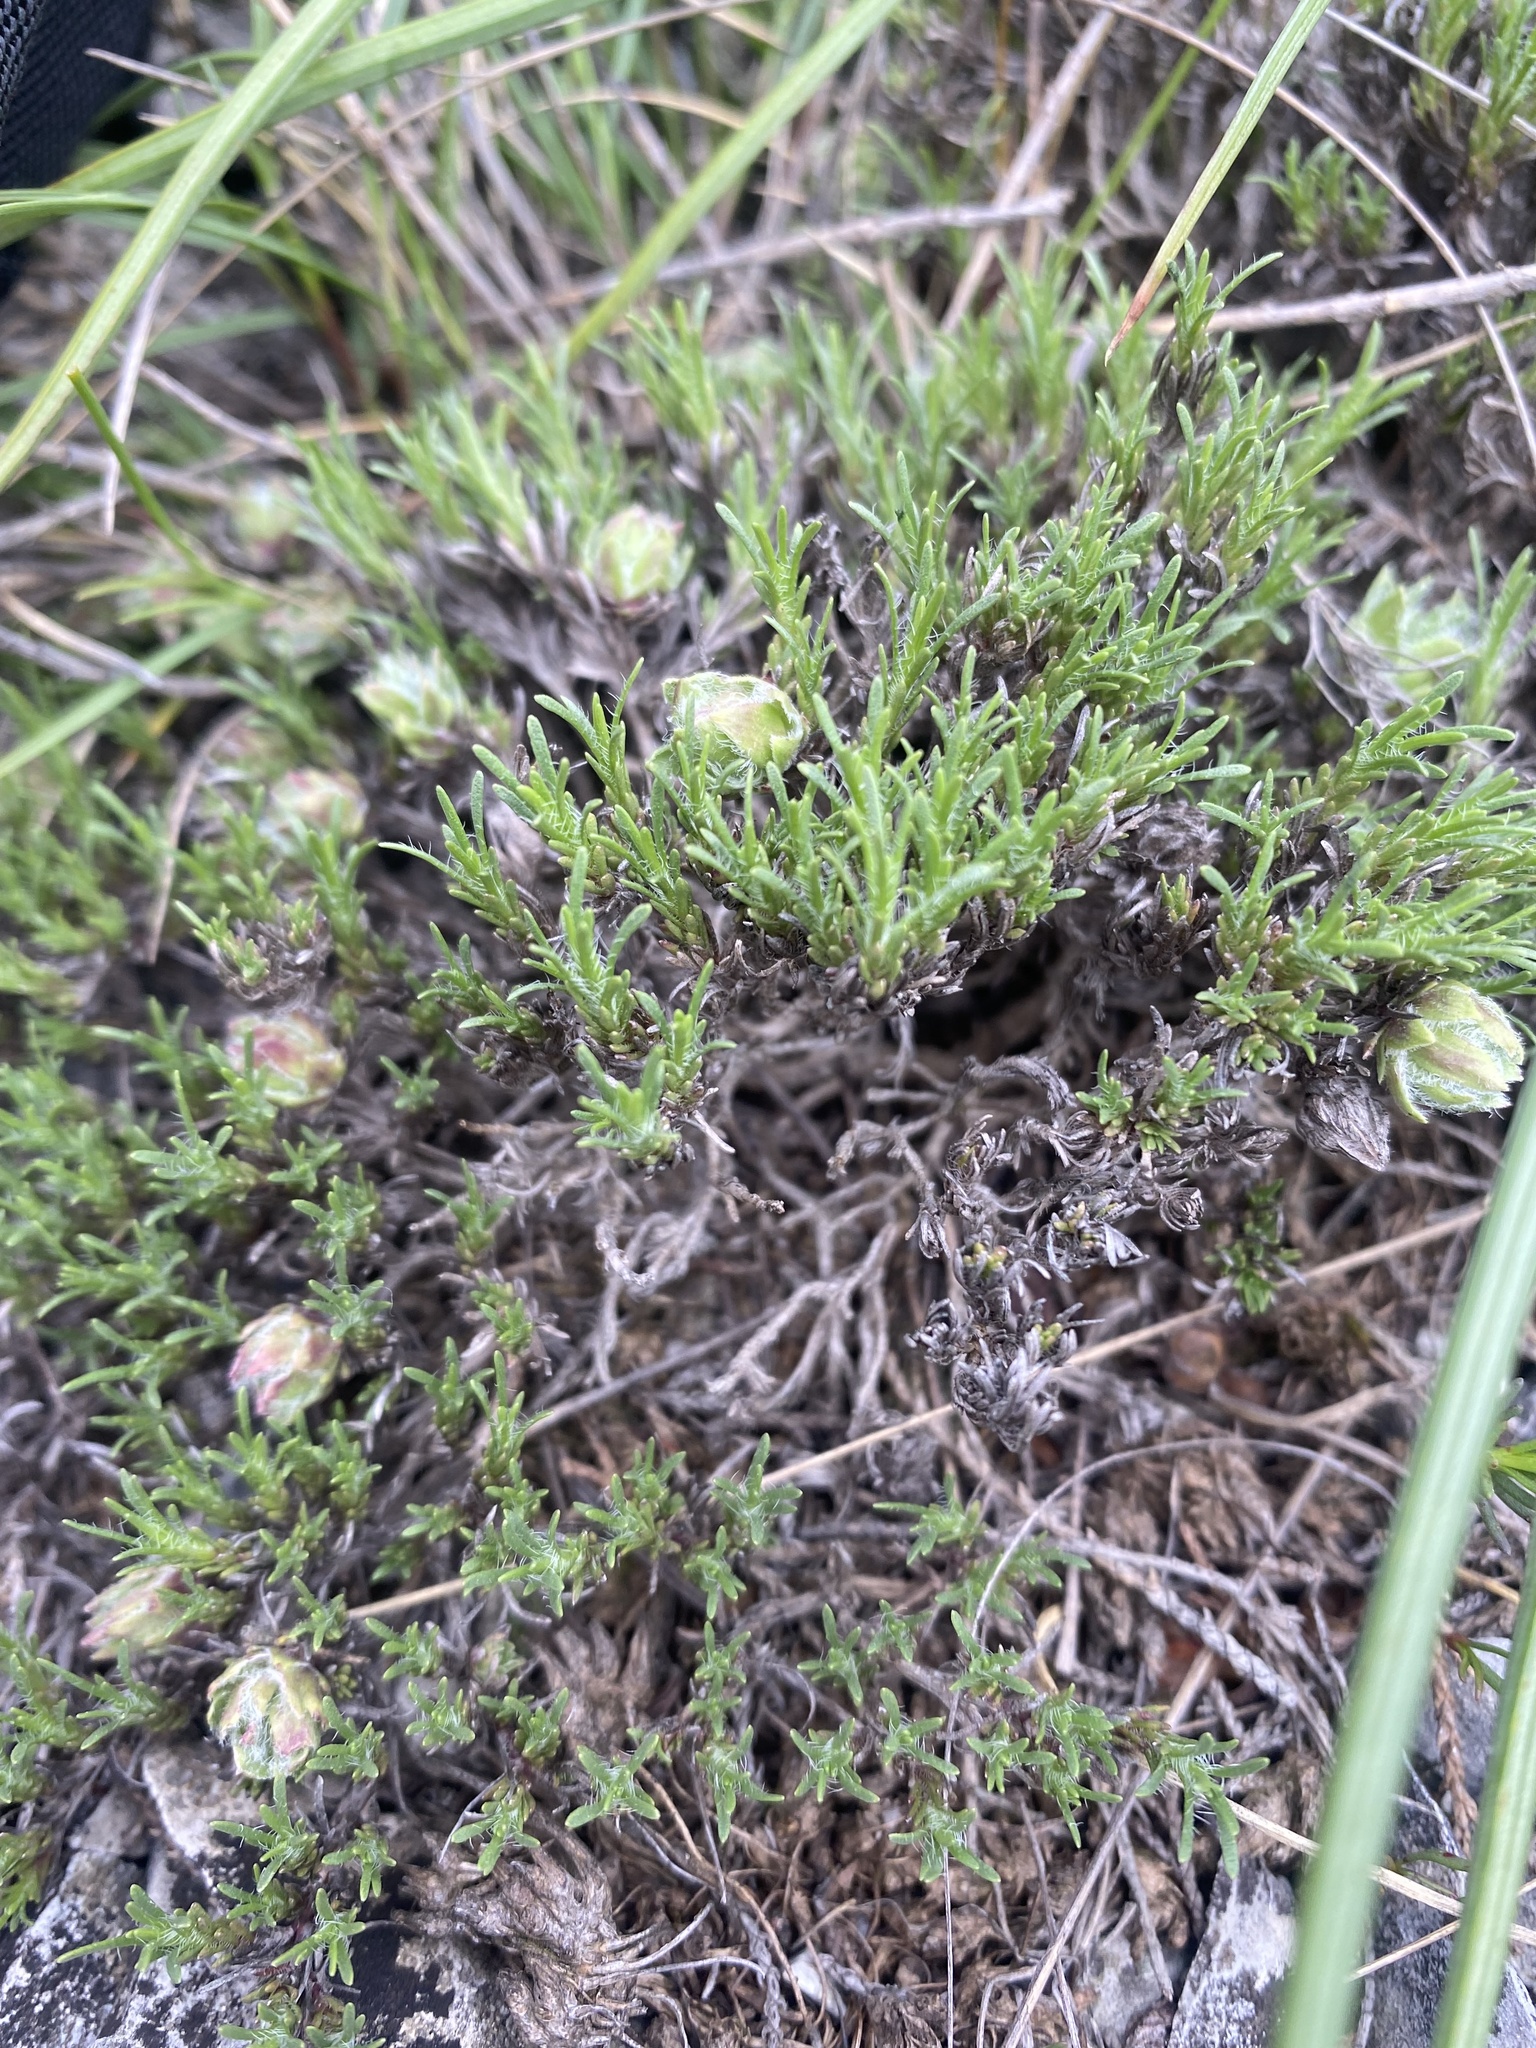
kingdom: Plantae
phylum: Tracheophyta
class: Magnoliopsida
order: Malvales
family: Cistaceae
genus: Fumana
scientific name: Fumana procumbens
